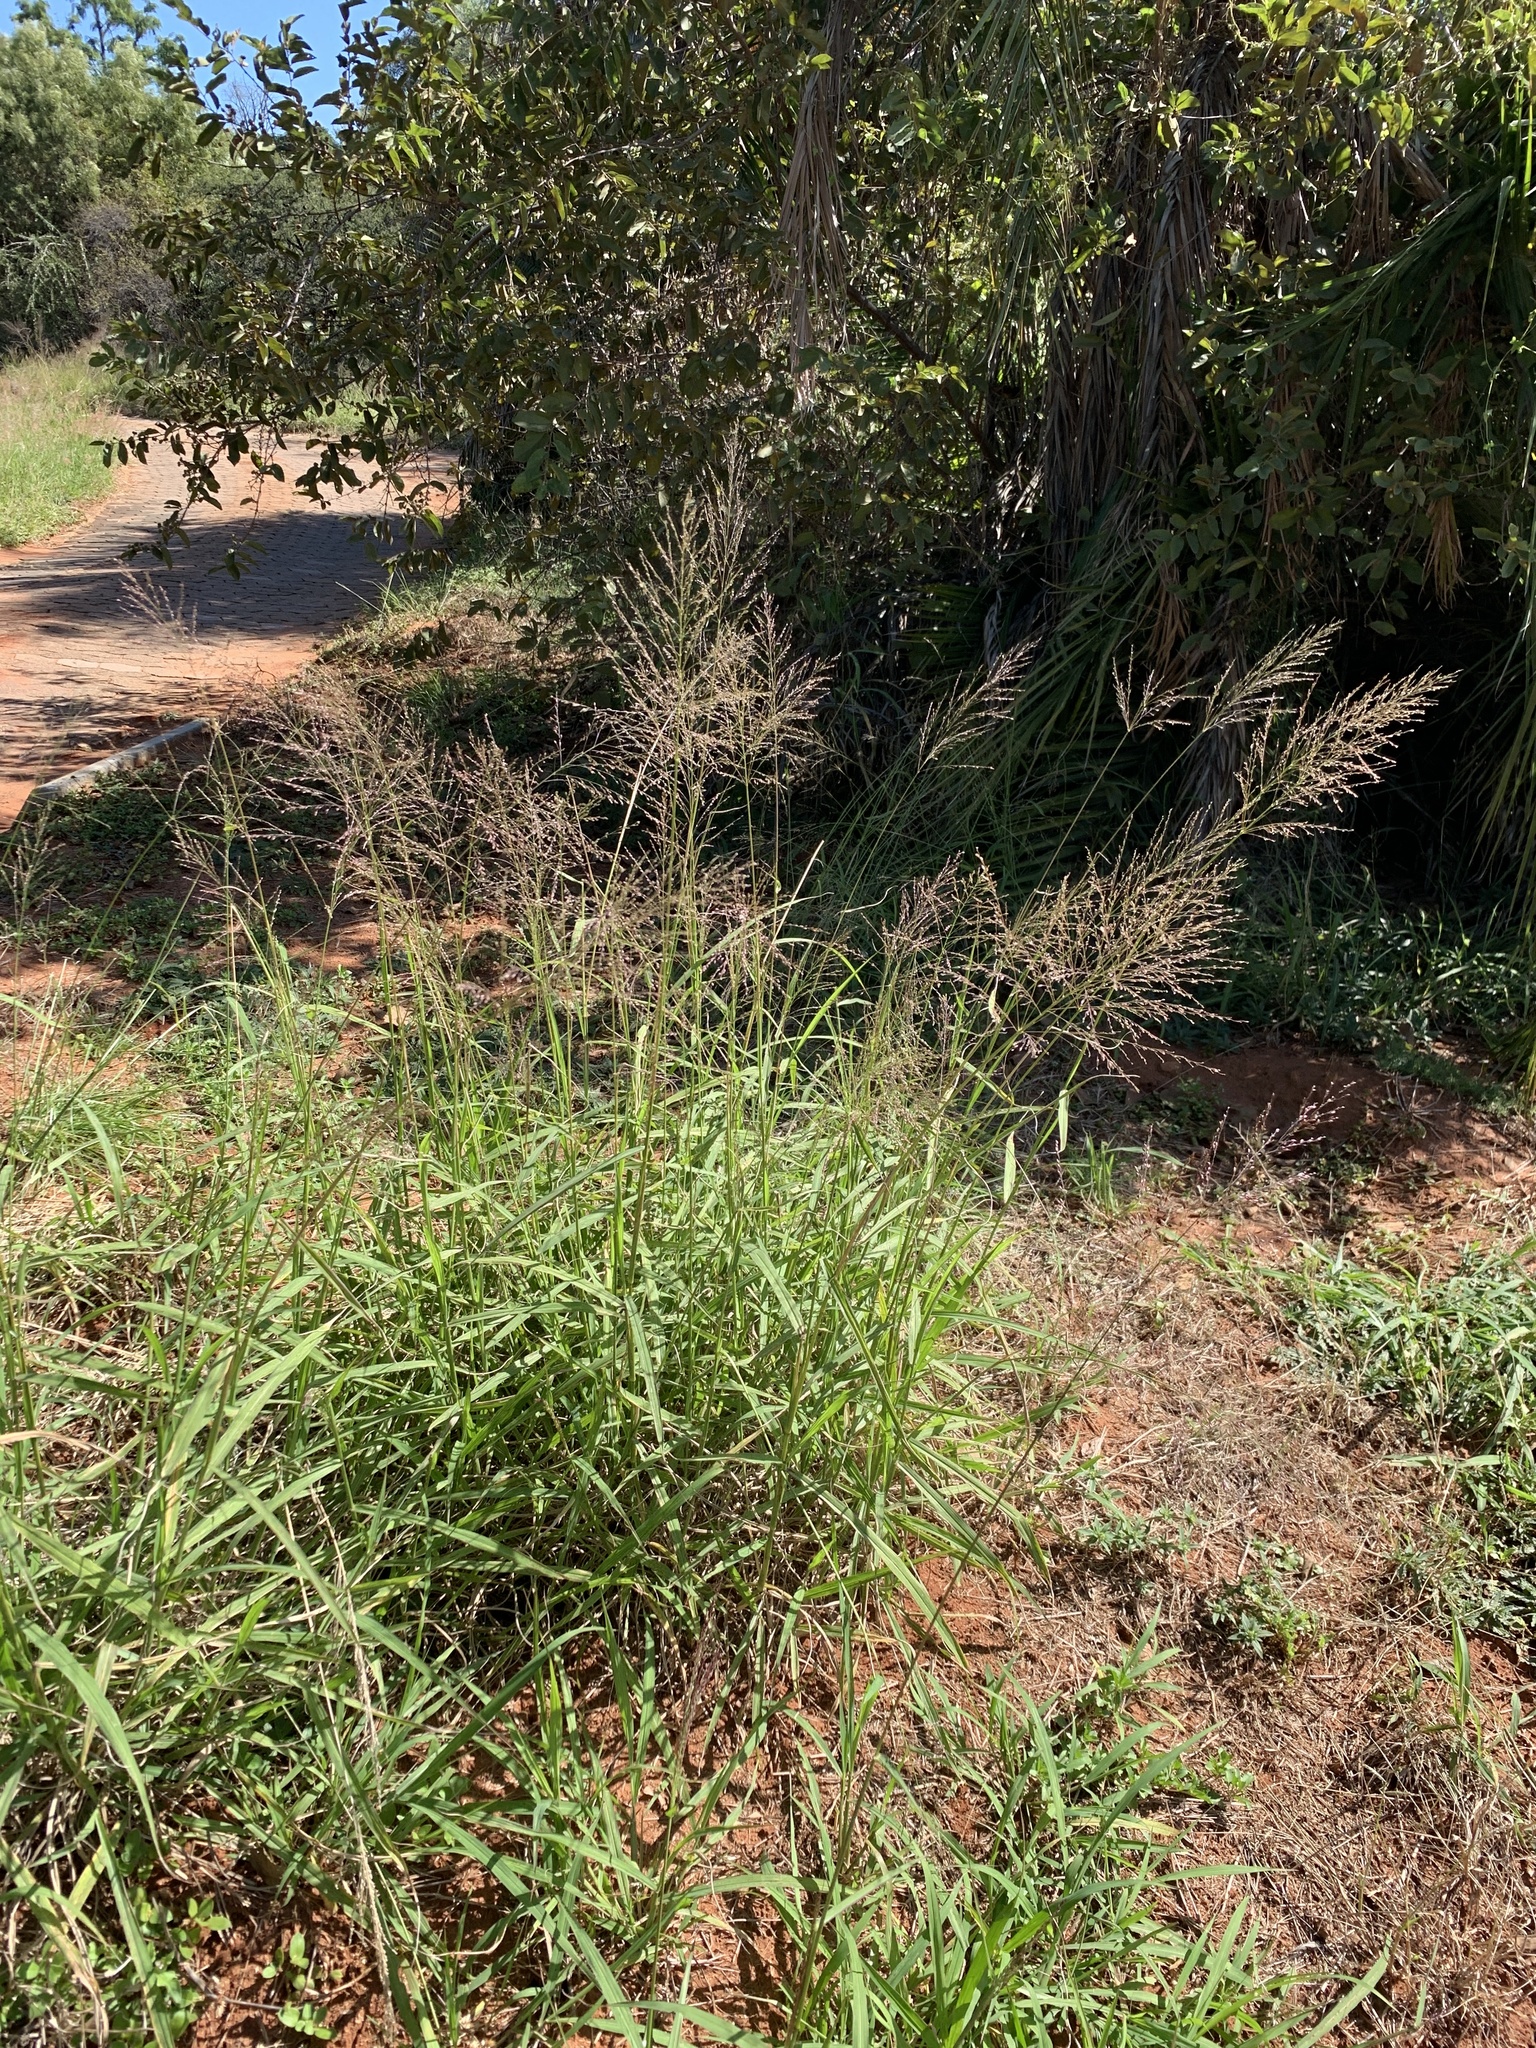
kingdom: Plantae
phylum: Tracheophyta
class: Liliopsida
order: Poales
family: Poaceae
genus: Megathyrsus
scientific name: Megathyrsus maximus
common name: Guineagrass
